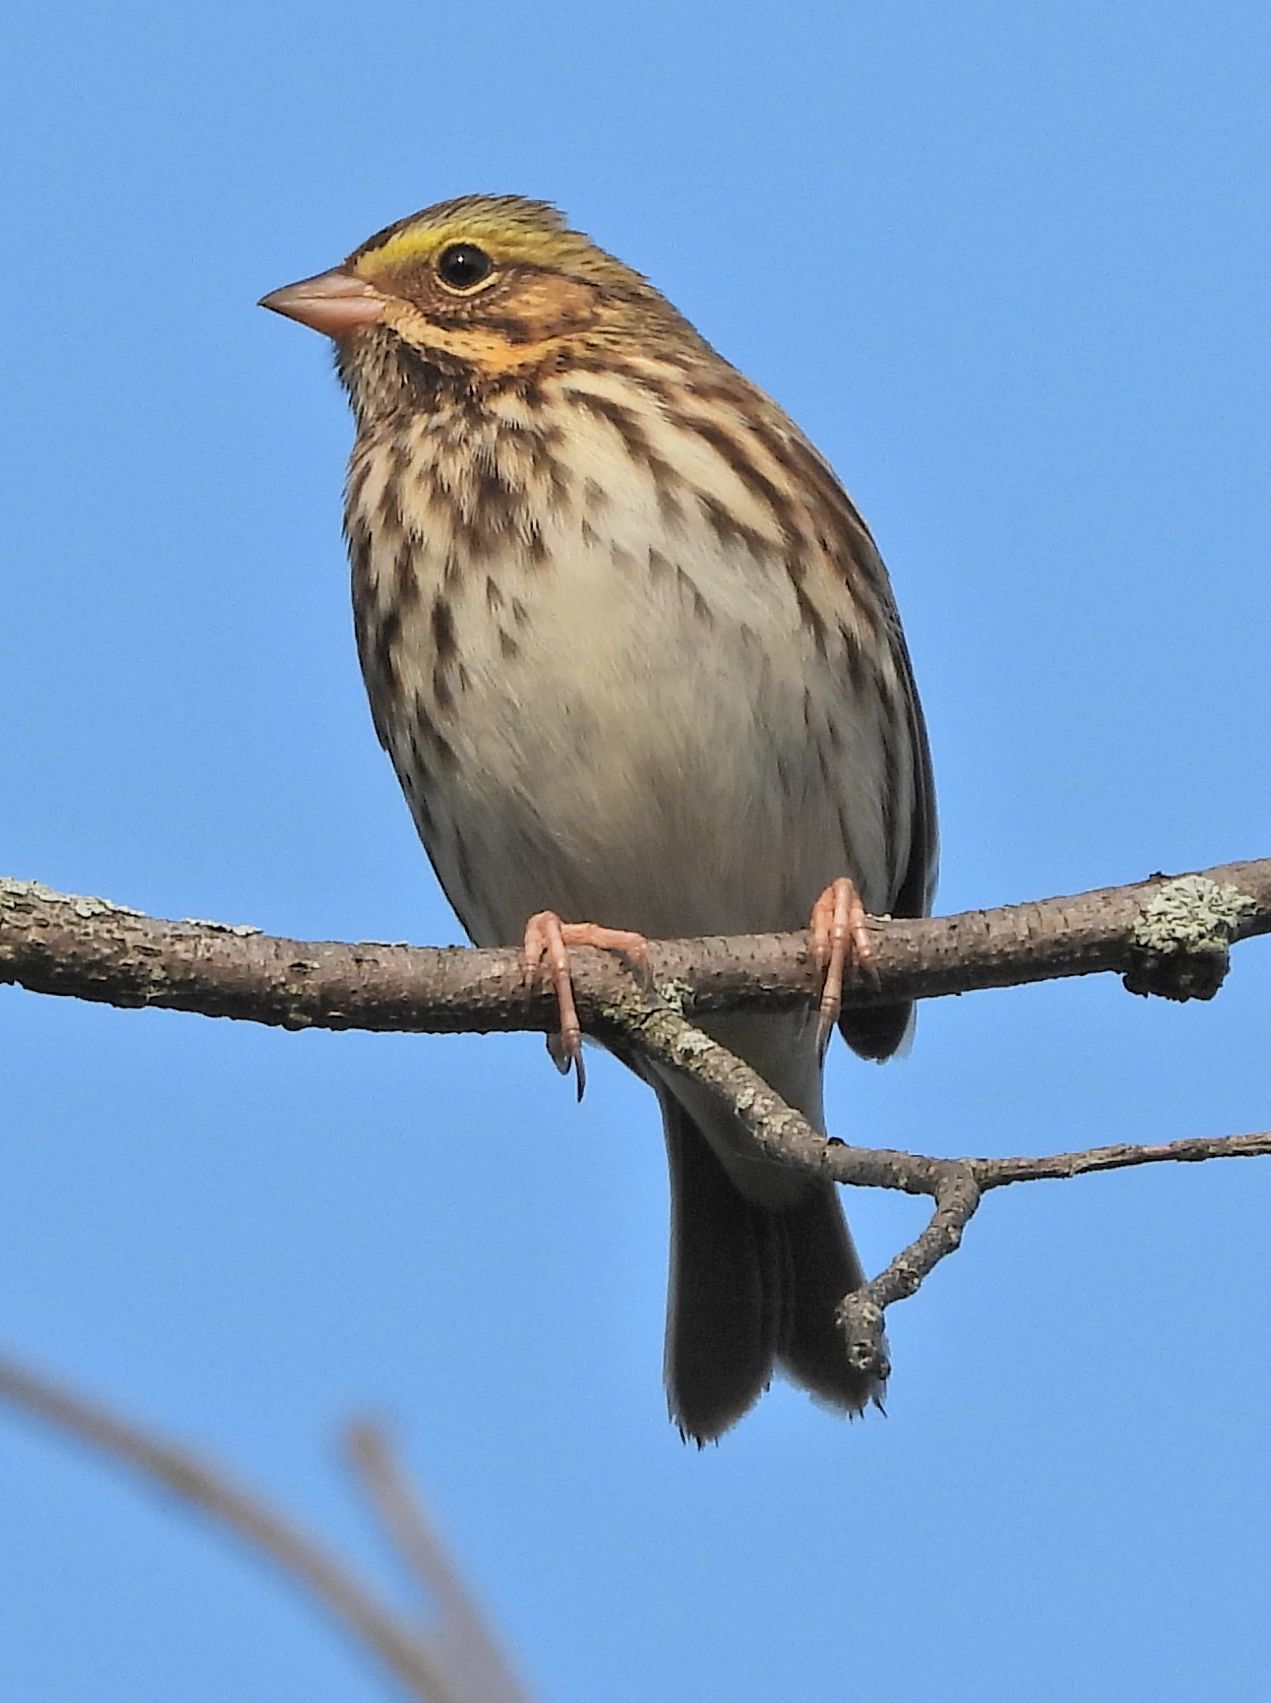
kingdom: Animalia
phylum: Chordata
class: Aves
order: Passeriformes
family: Passerellidae
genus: Passerculus
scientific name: Passerculus sandwichensis
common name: Savannah sparrow
